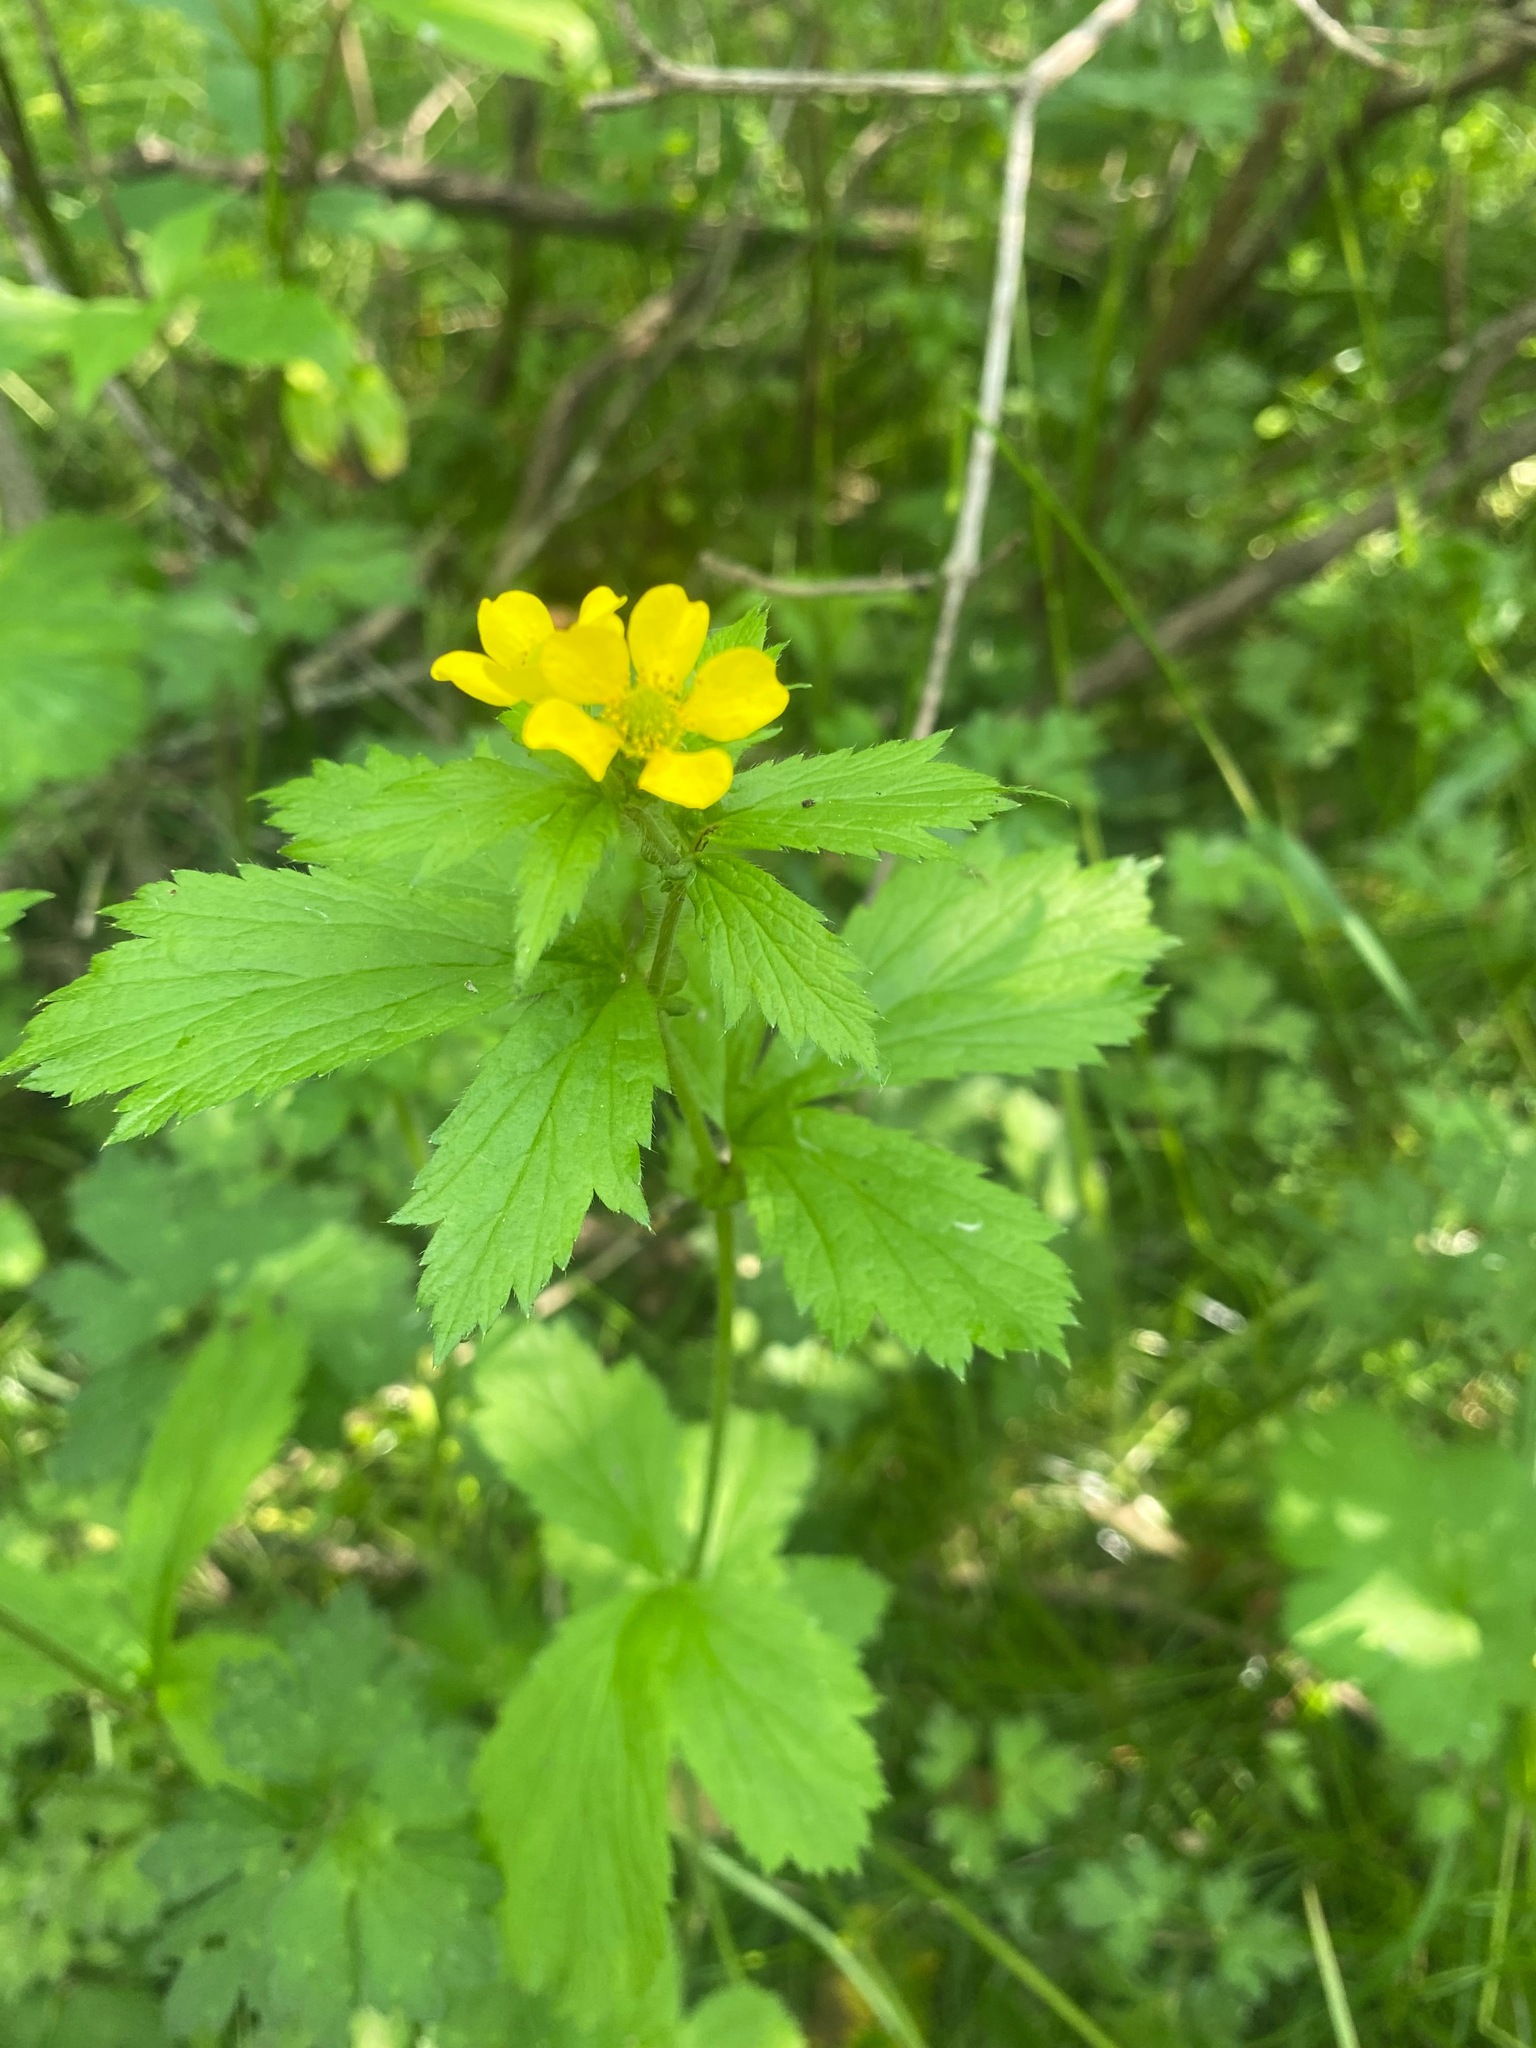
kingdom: Plantae
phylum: Tracheophyta
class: Magnoliopsida
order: Rosales
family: Rosaceae
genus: Geum
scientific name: Geum macrophyllum
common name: Large-leaved avens
